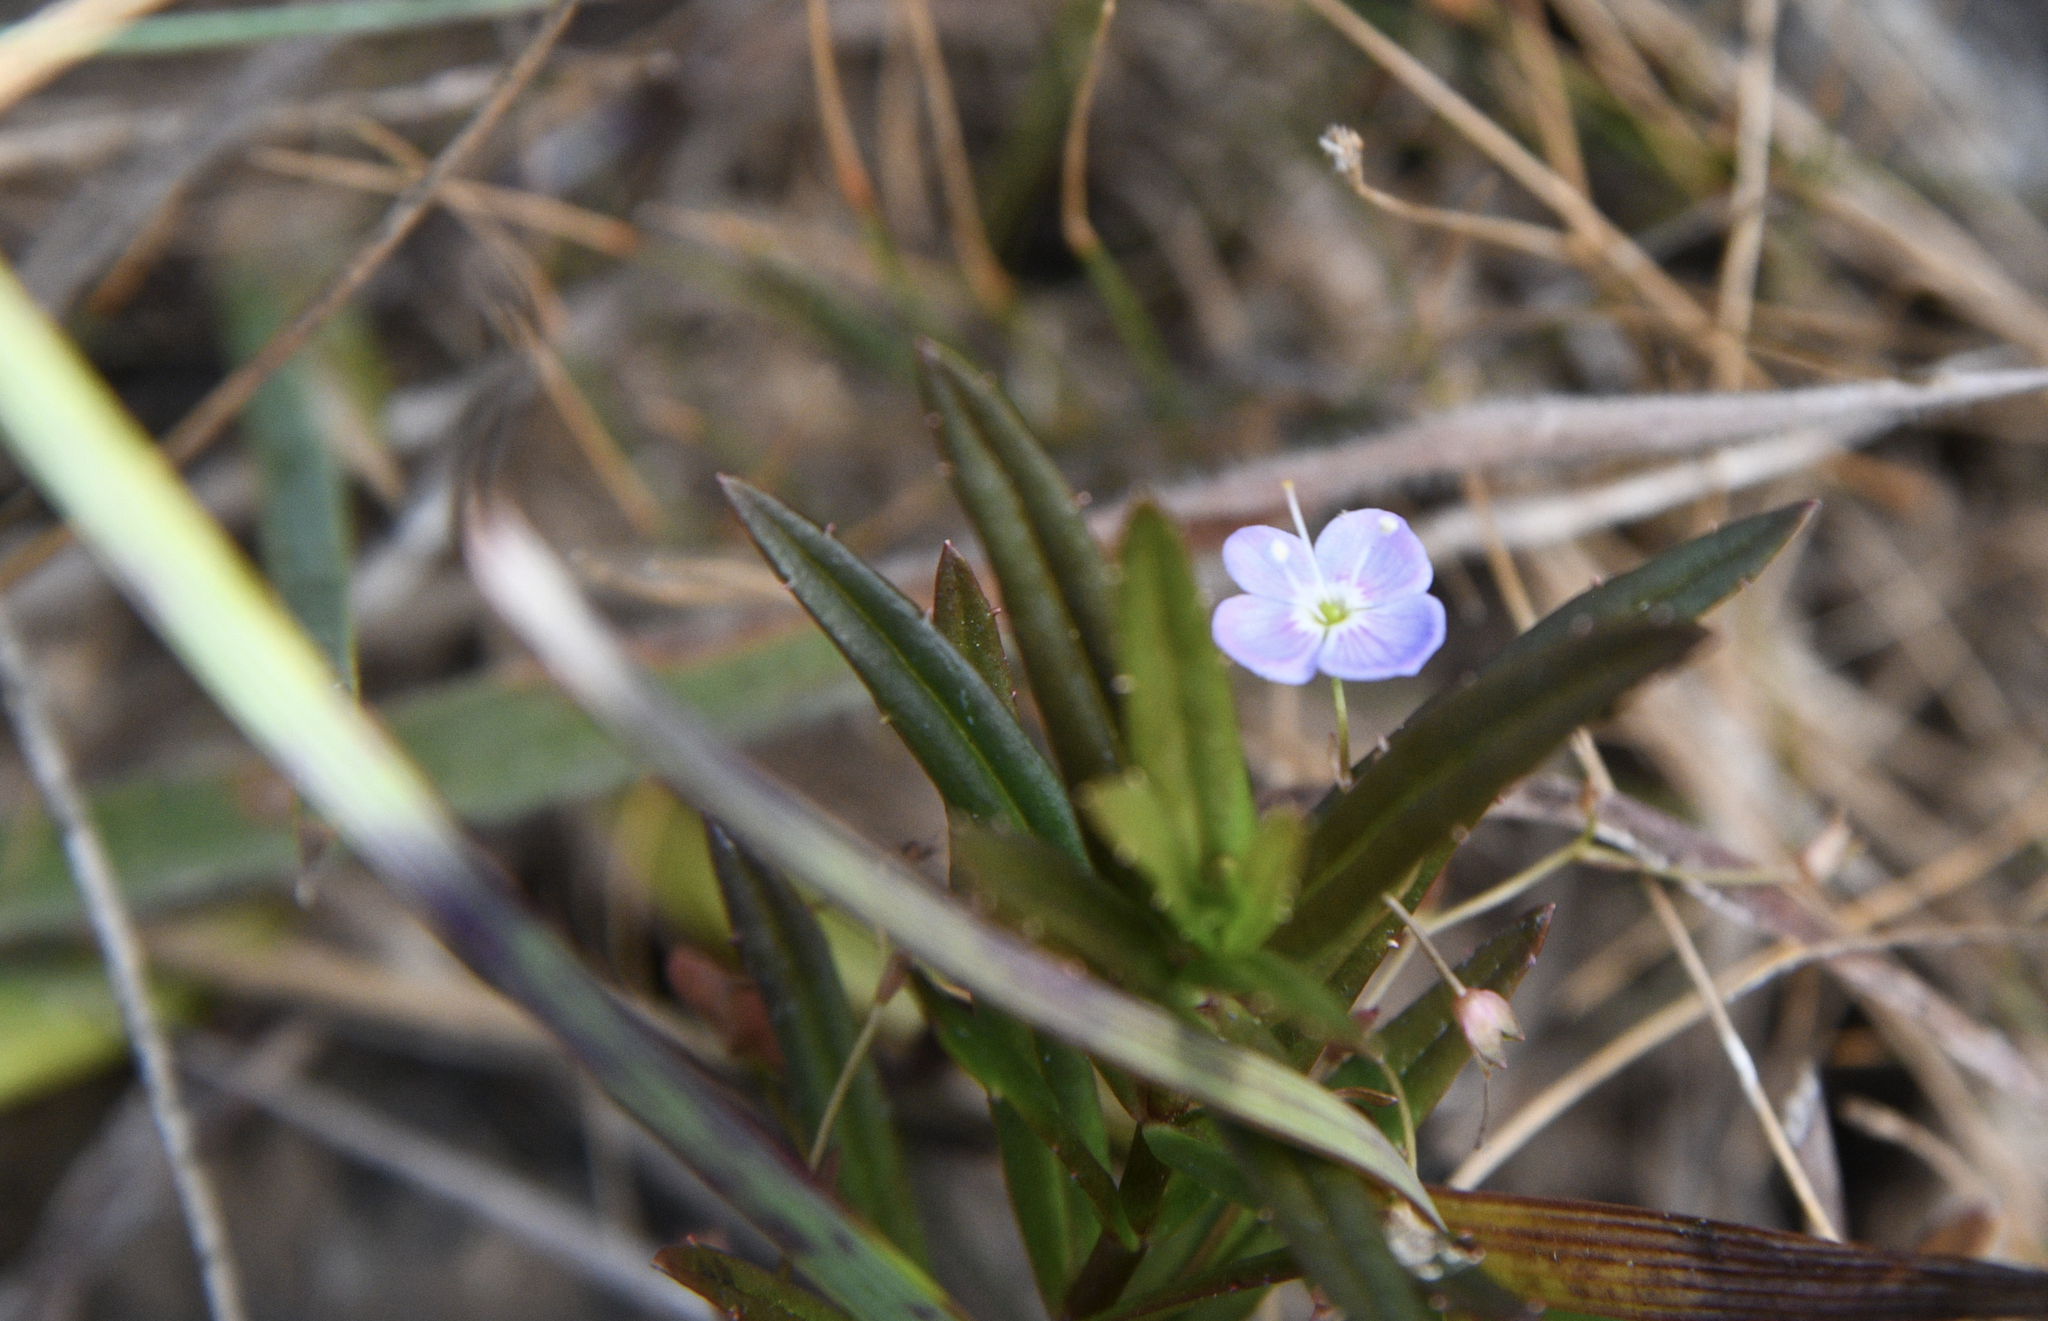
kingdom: Plantae
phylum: Tracheophyta
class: Magnoliopsida
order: Lamiales
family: Plantaginaceae
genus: Veronica
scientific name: Veronica scutellata
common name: Marsh speedwell
